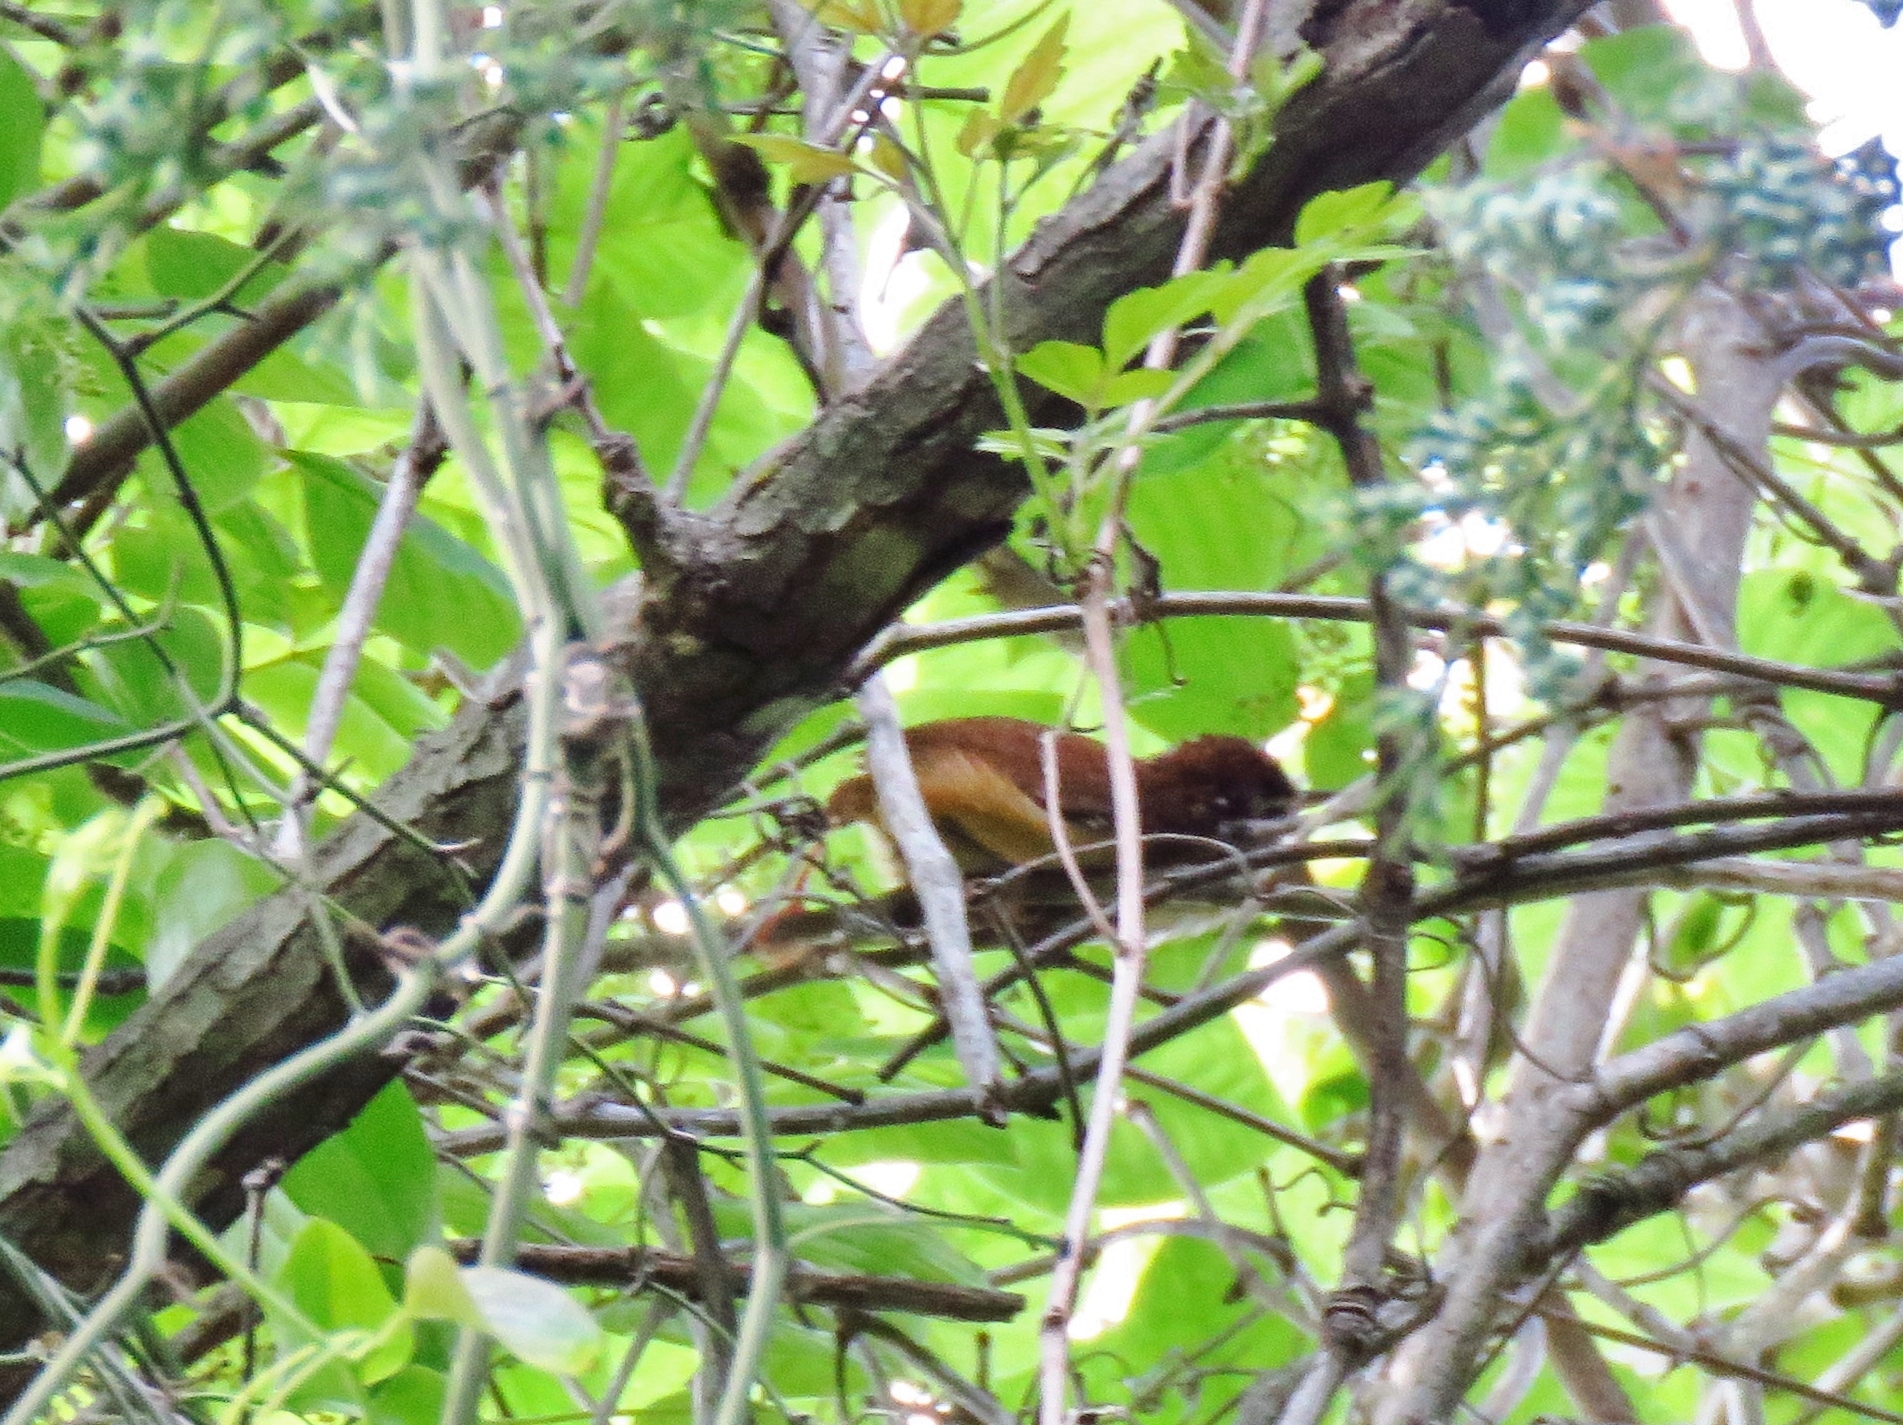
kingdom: Animalia
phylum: Chordata
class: Aves
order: Passeriformes
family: Troglodytidae
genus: Thryothorus
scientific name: Thryothorus ludovicianus
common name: Carolina wren
